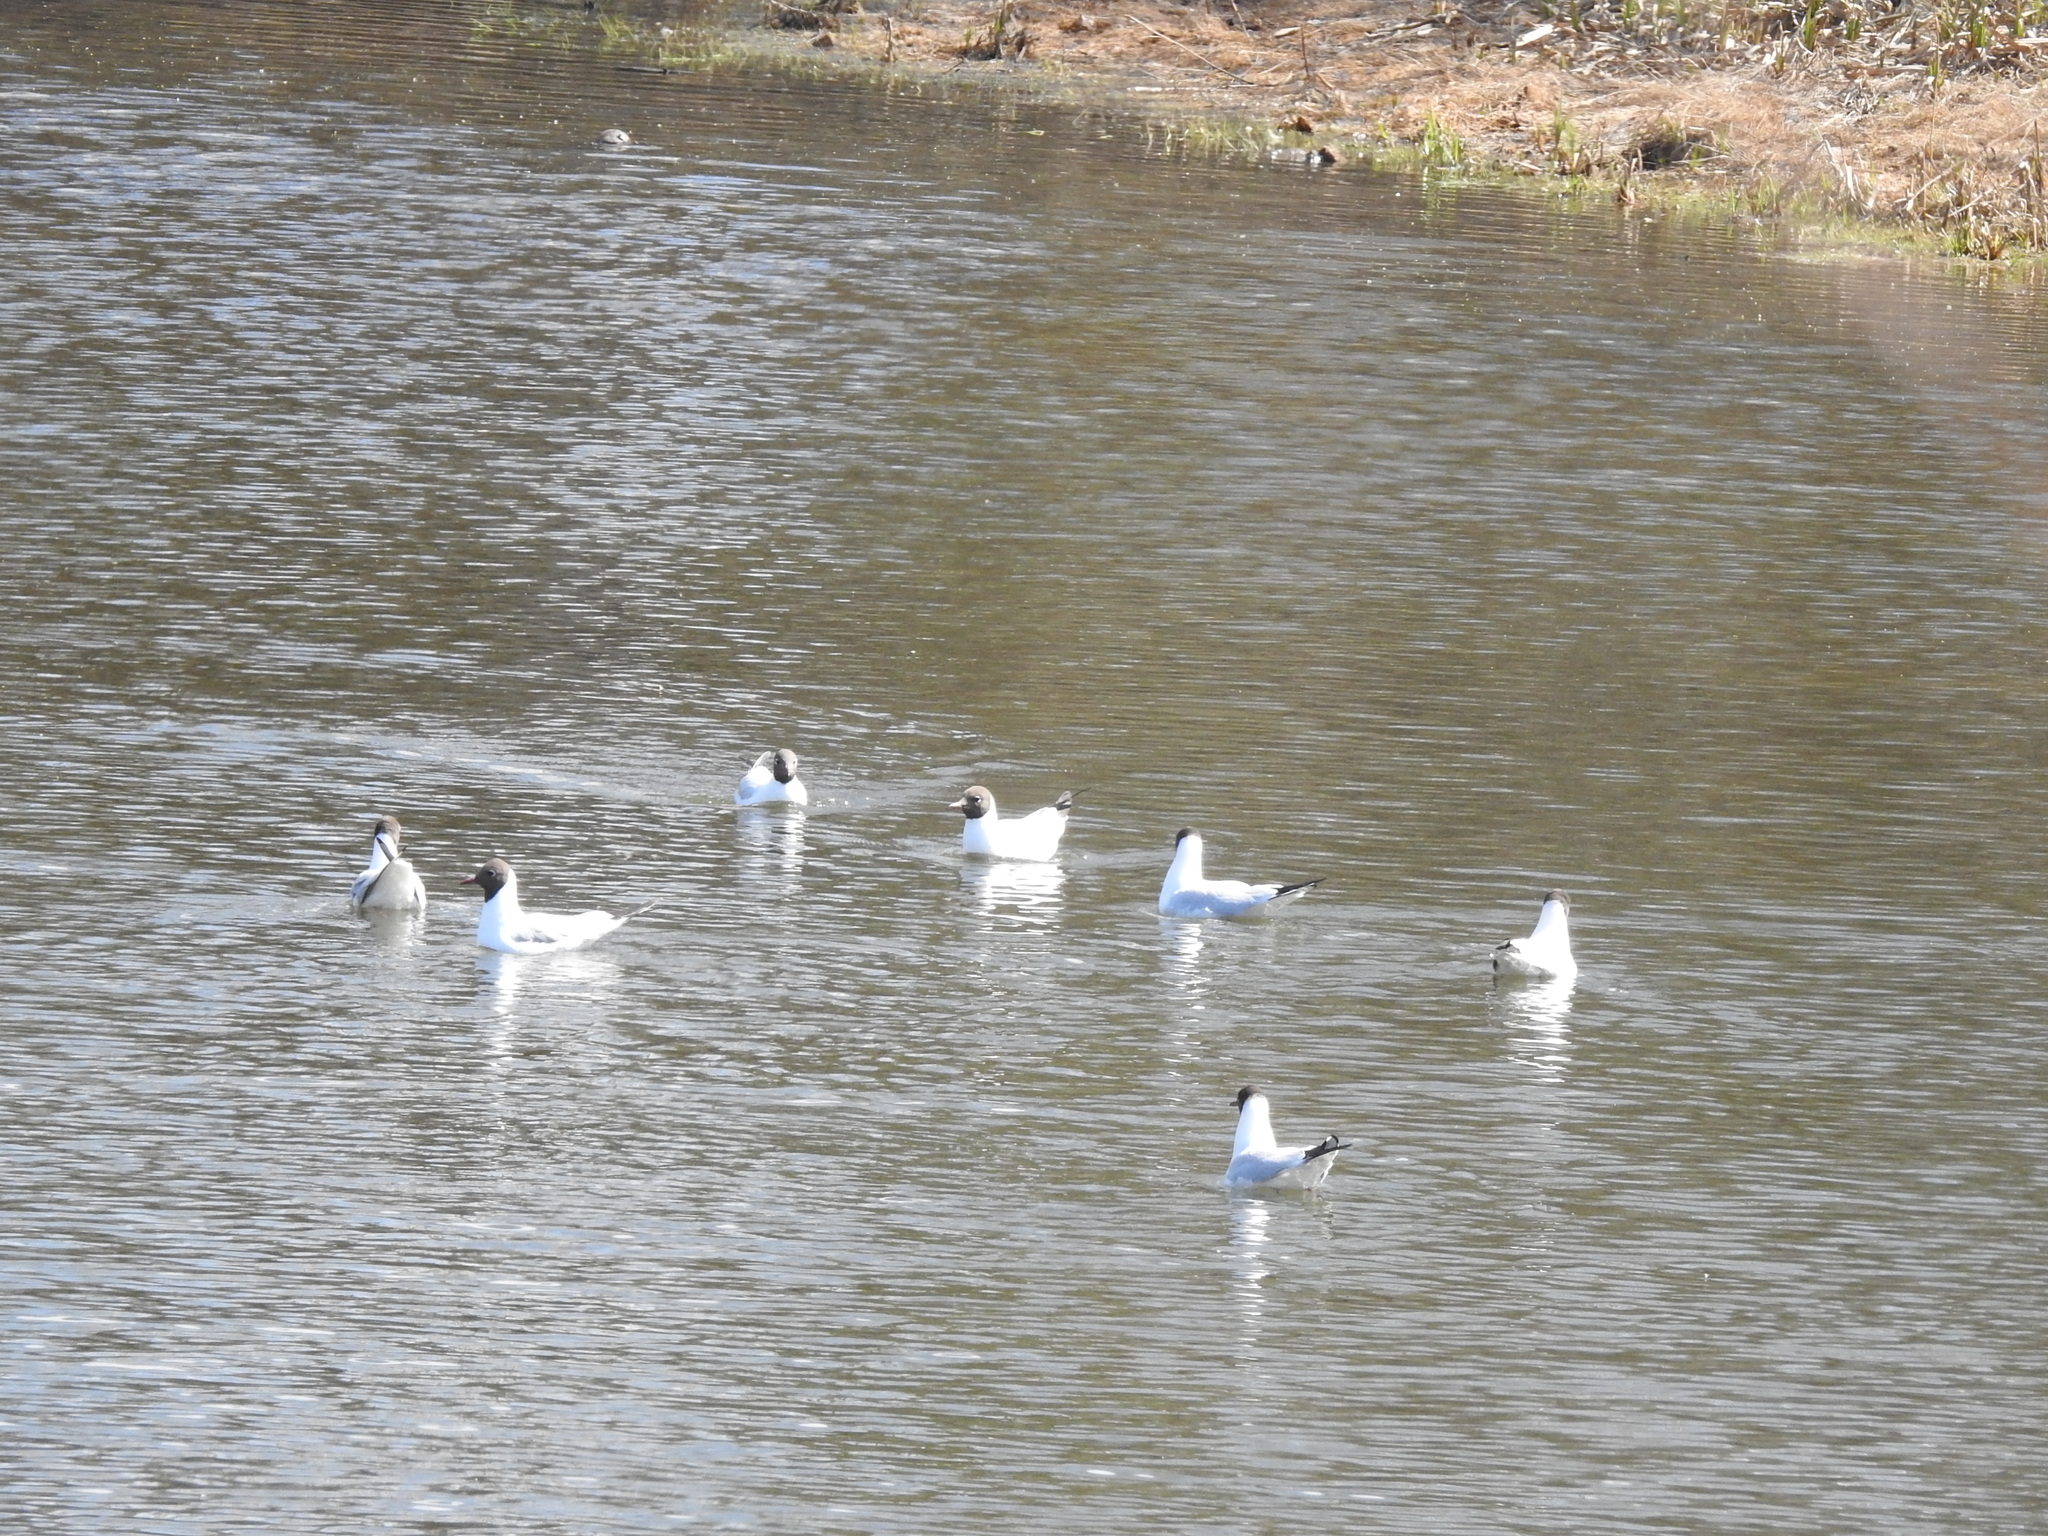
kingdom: Animalia
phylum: Chordata
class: Aves
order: Charadriiformes
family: Laridae
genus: Chroicocephalus
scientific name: Chroicocephalus ridibundus
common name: Black-headed gull
